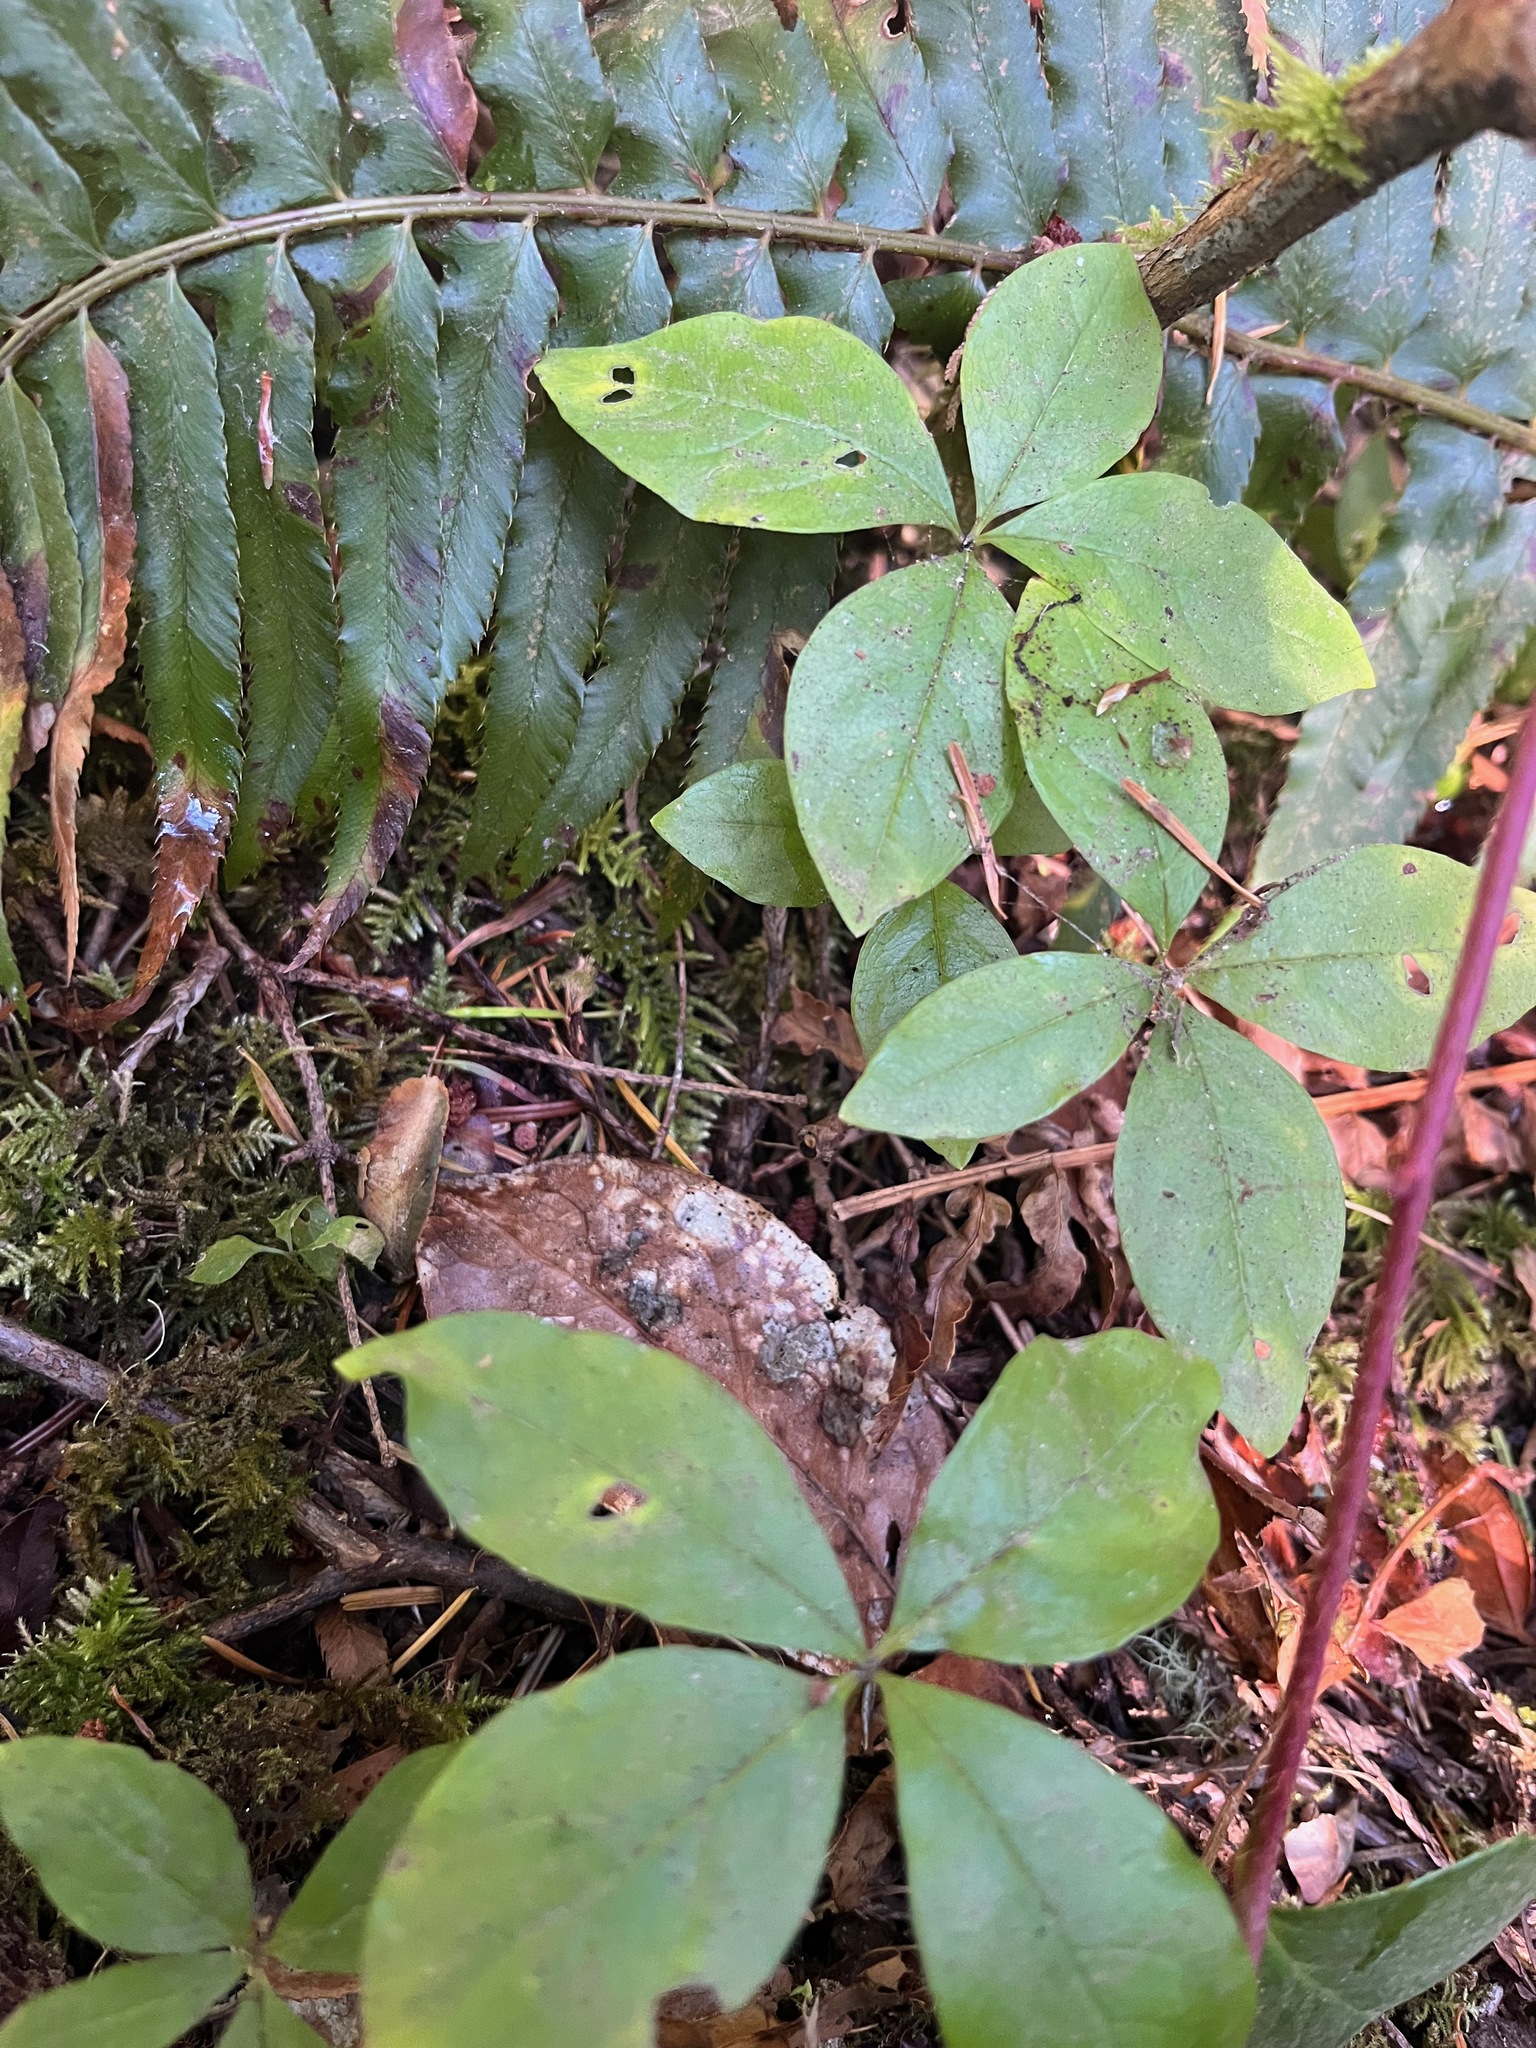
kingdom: Plantae
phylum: Tracheophyta
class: Magnoliopsida
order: Ericales
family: Primulaceae
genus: Lysimachia
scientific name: Lysimachia latifolia
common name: Pacific starflower
